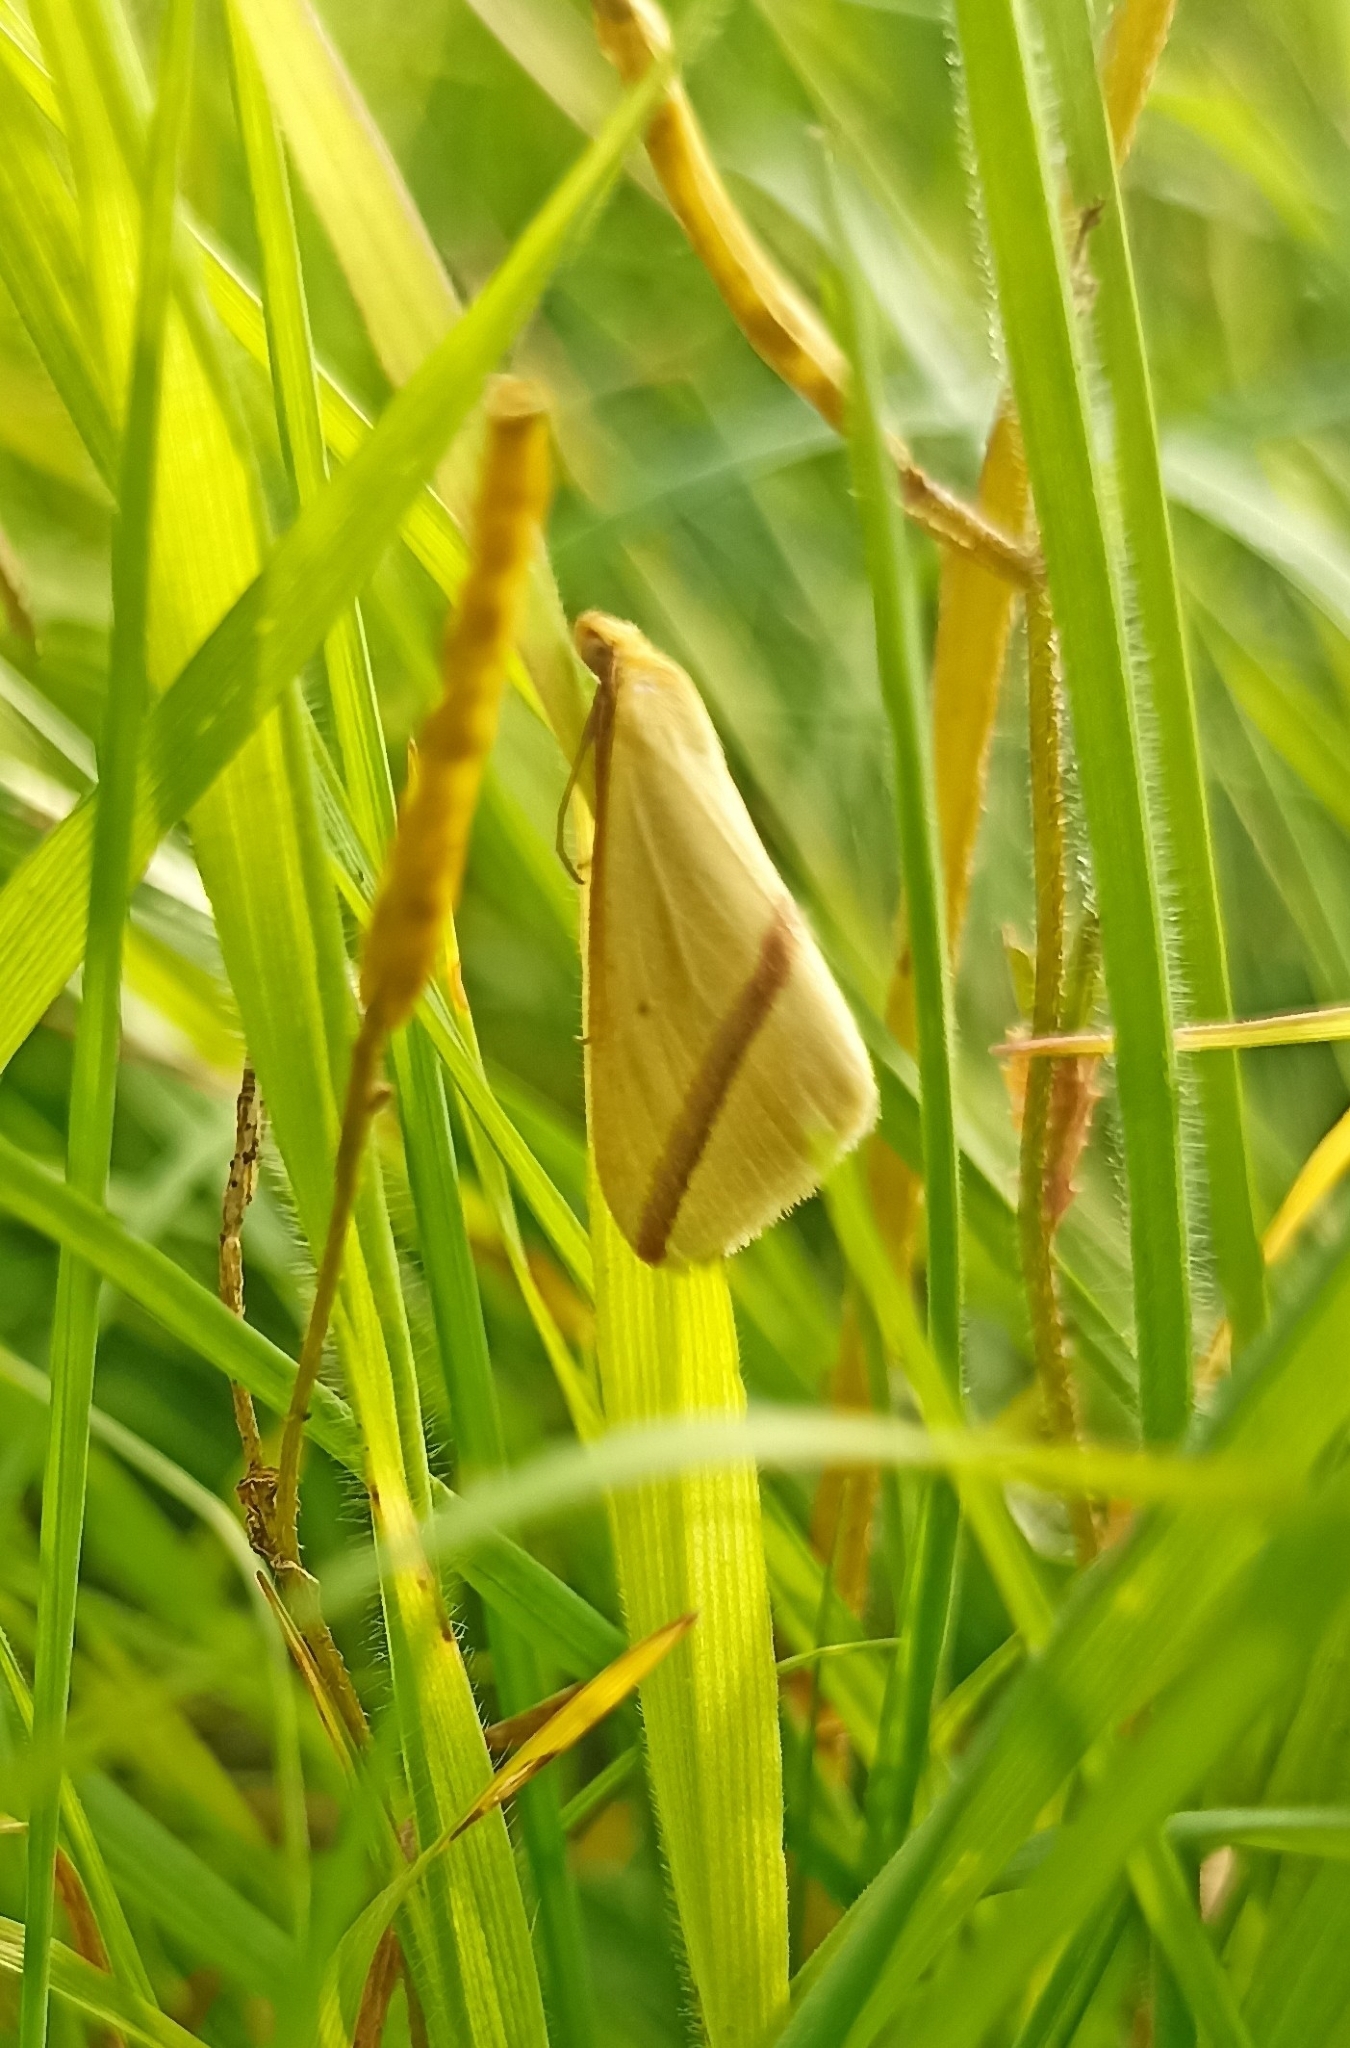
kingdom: Animalia
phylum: Arthropoda
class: Insecta
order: Lepidoptera
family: Geometridae
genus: Rhodometra
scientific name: Rhodometra sacraria
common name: Vestal
